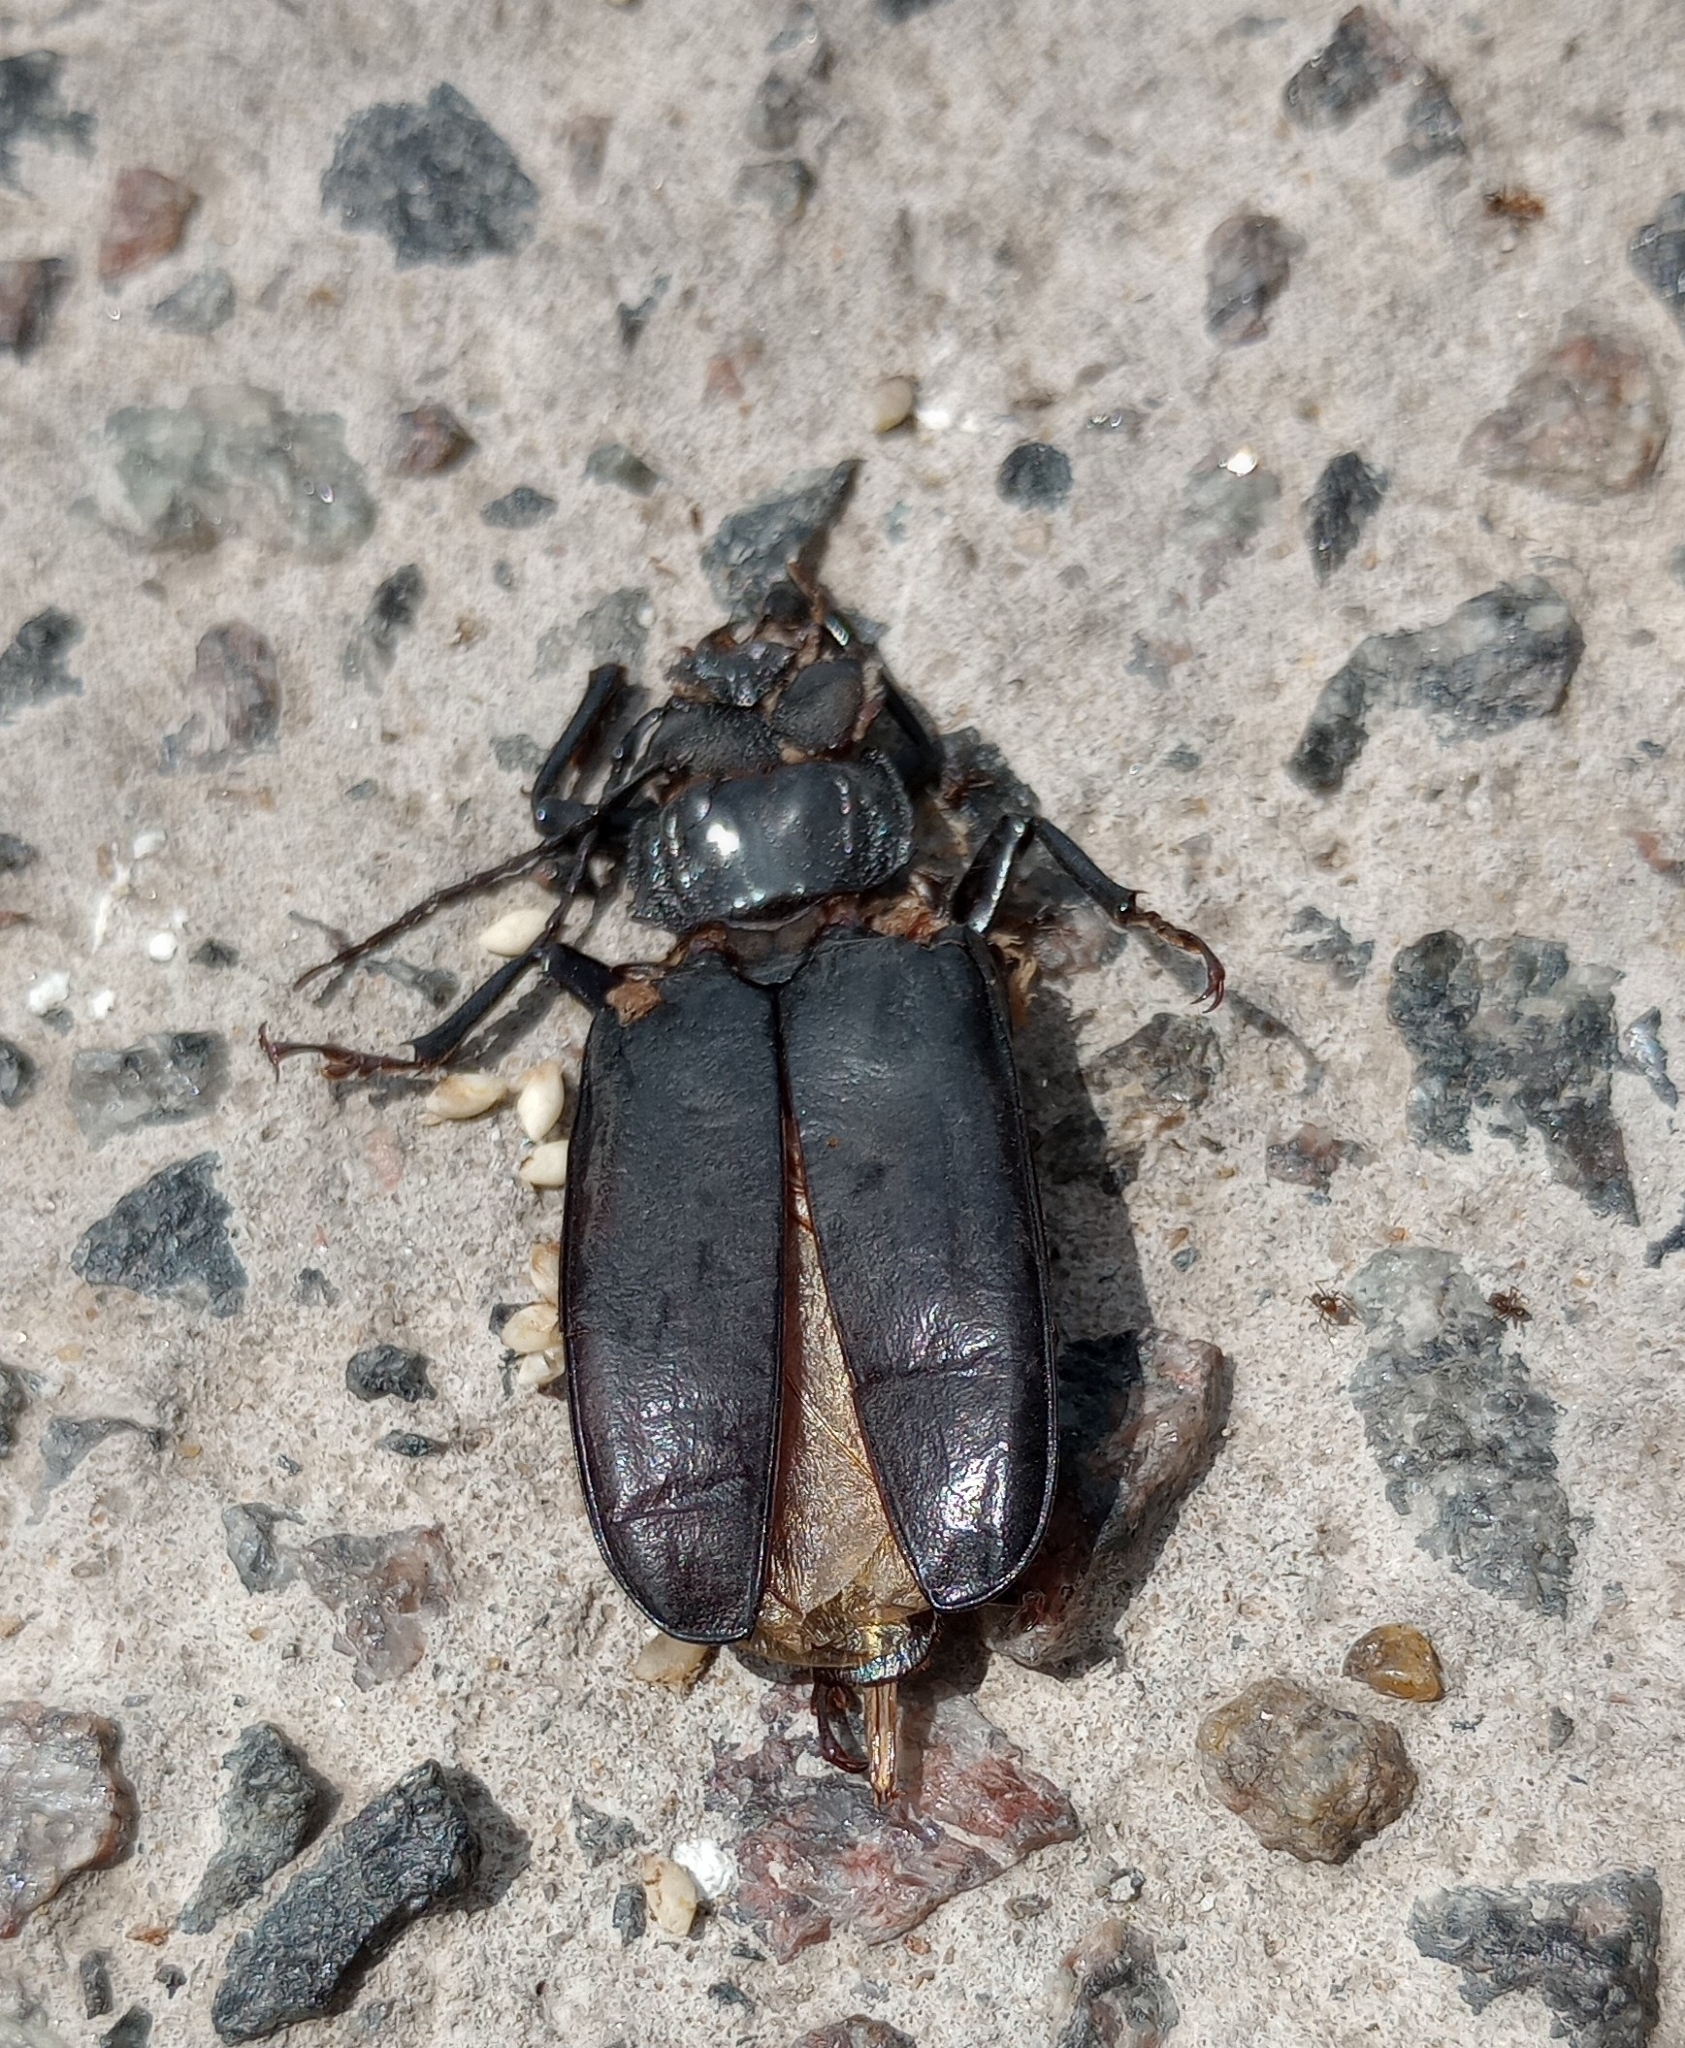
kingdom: Animalia
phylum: Arthropoda
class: Insecta
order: Coleoptera
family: Cerambycidae
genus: Mallodon
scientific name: Mallodon dasystomum
